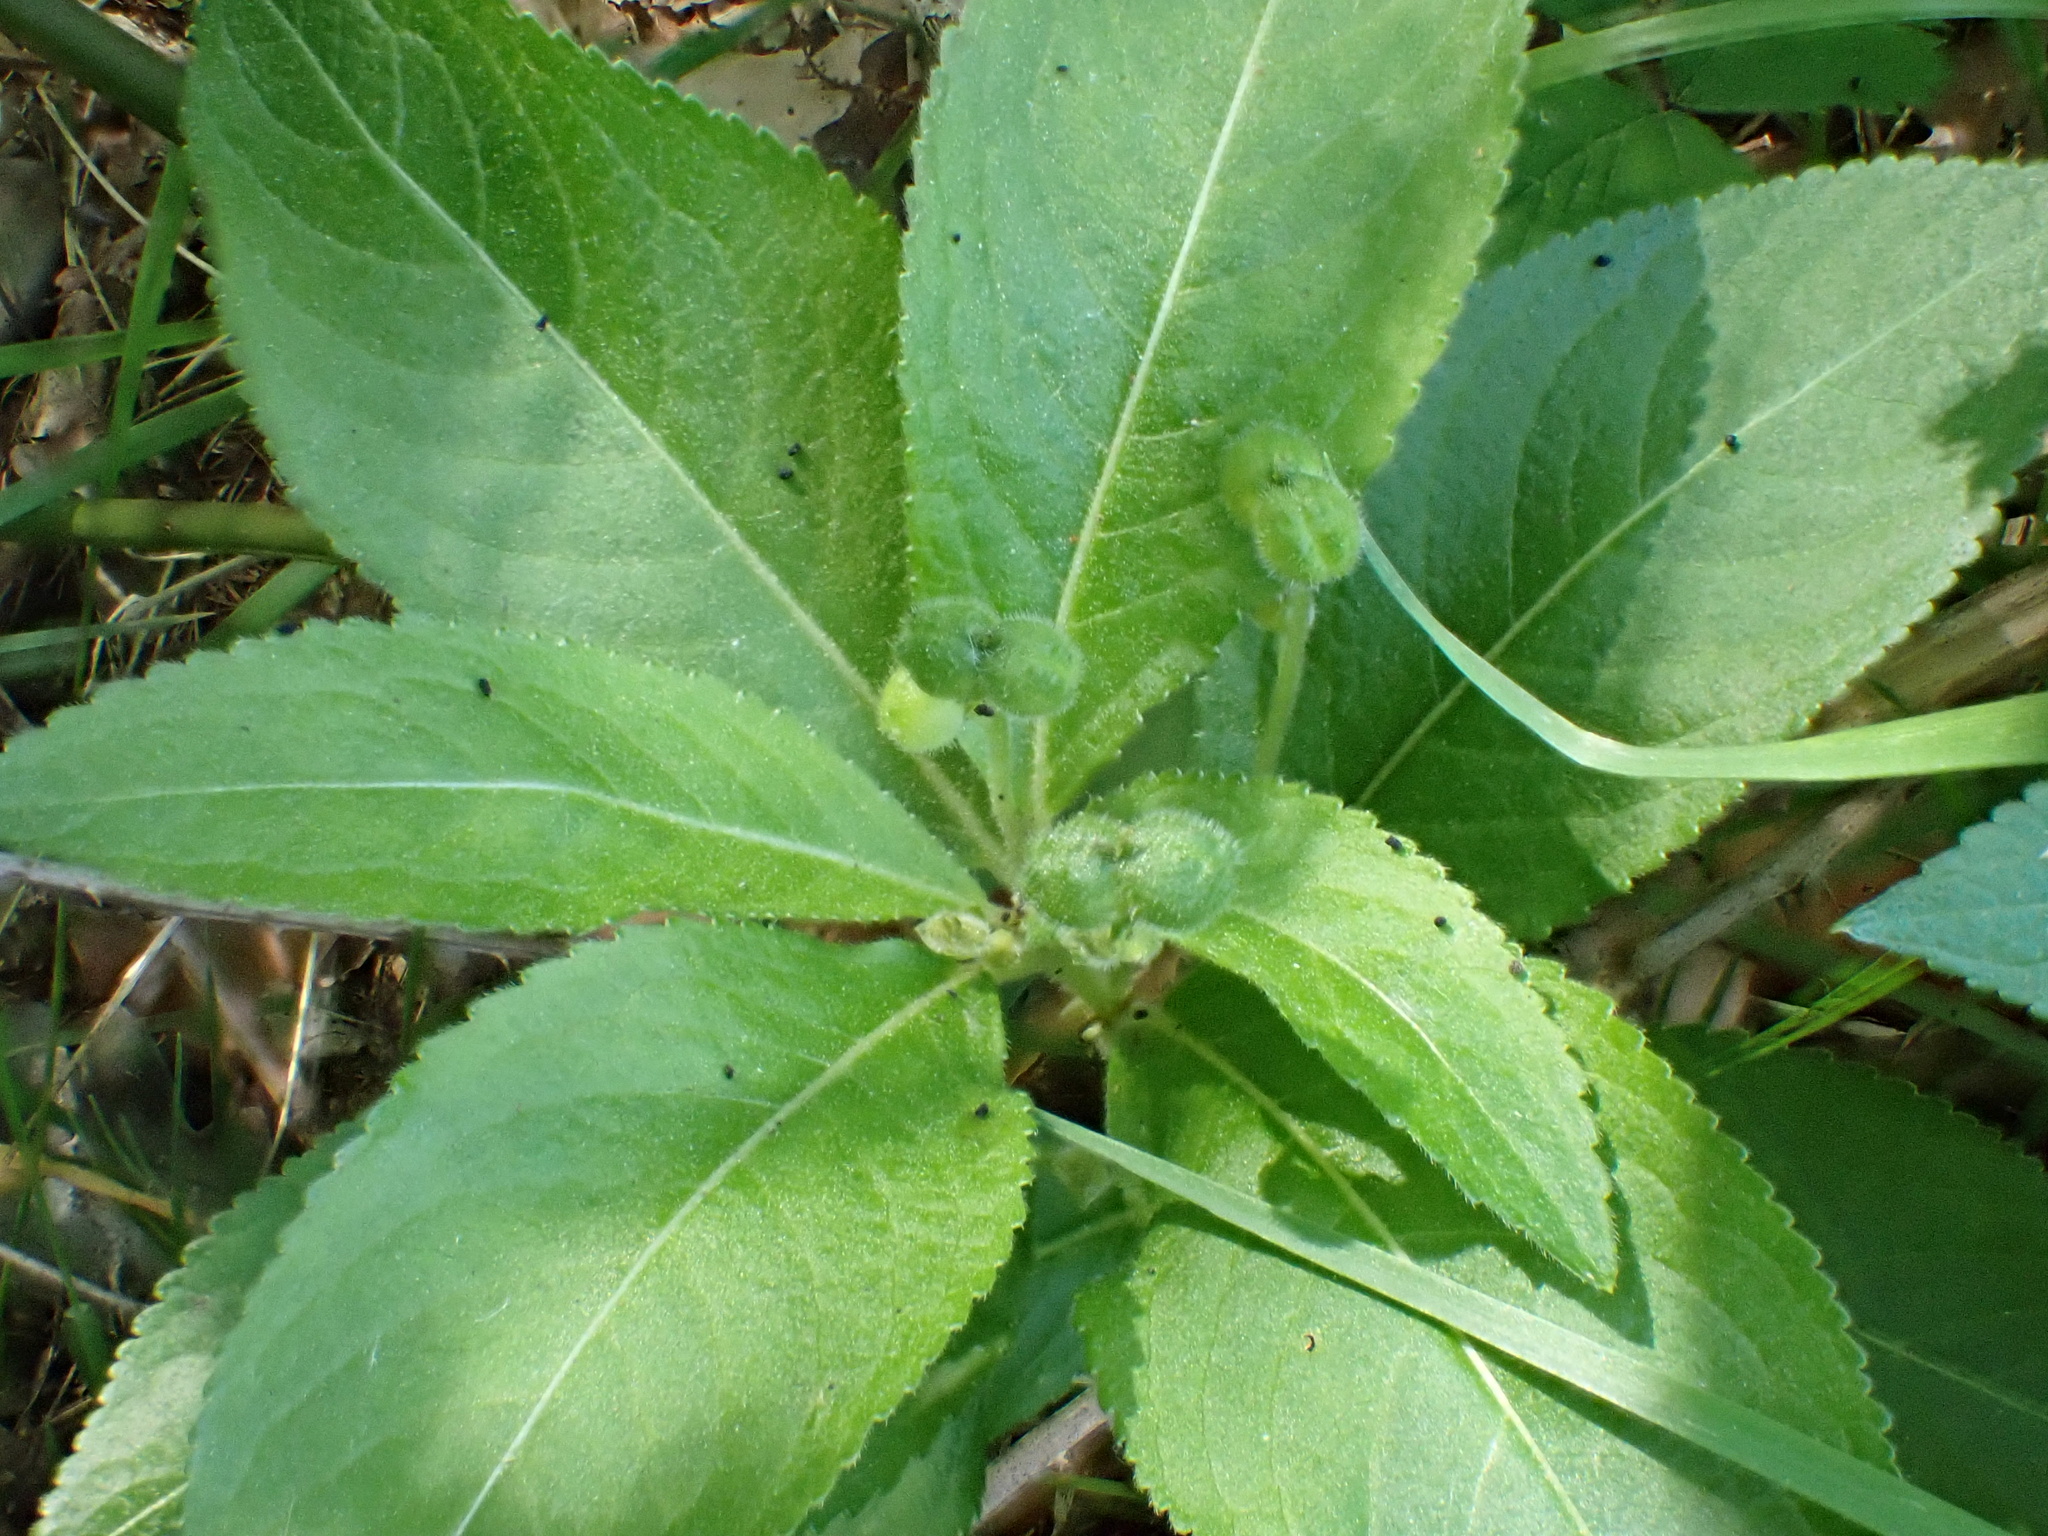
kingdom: Plantae
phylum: Tracheophyta
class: Magnoliopsida
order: Malpighiales
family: Euphorbiaceae
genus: Mercurialis
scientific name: Mercurialis perennis
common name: Dog mercury
